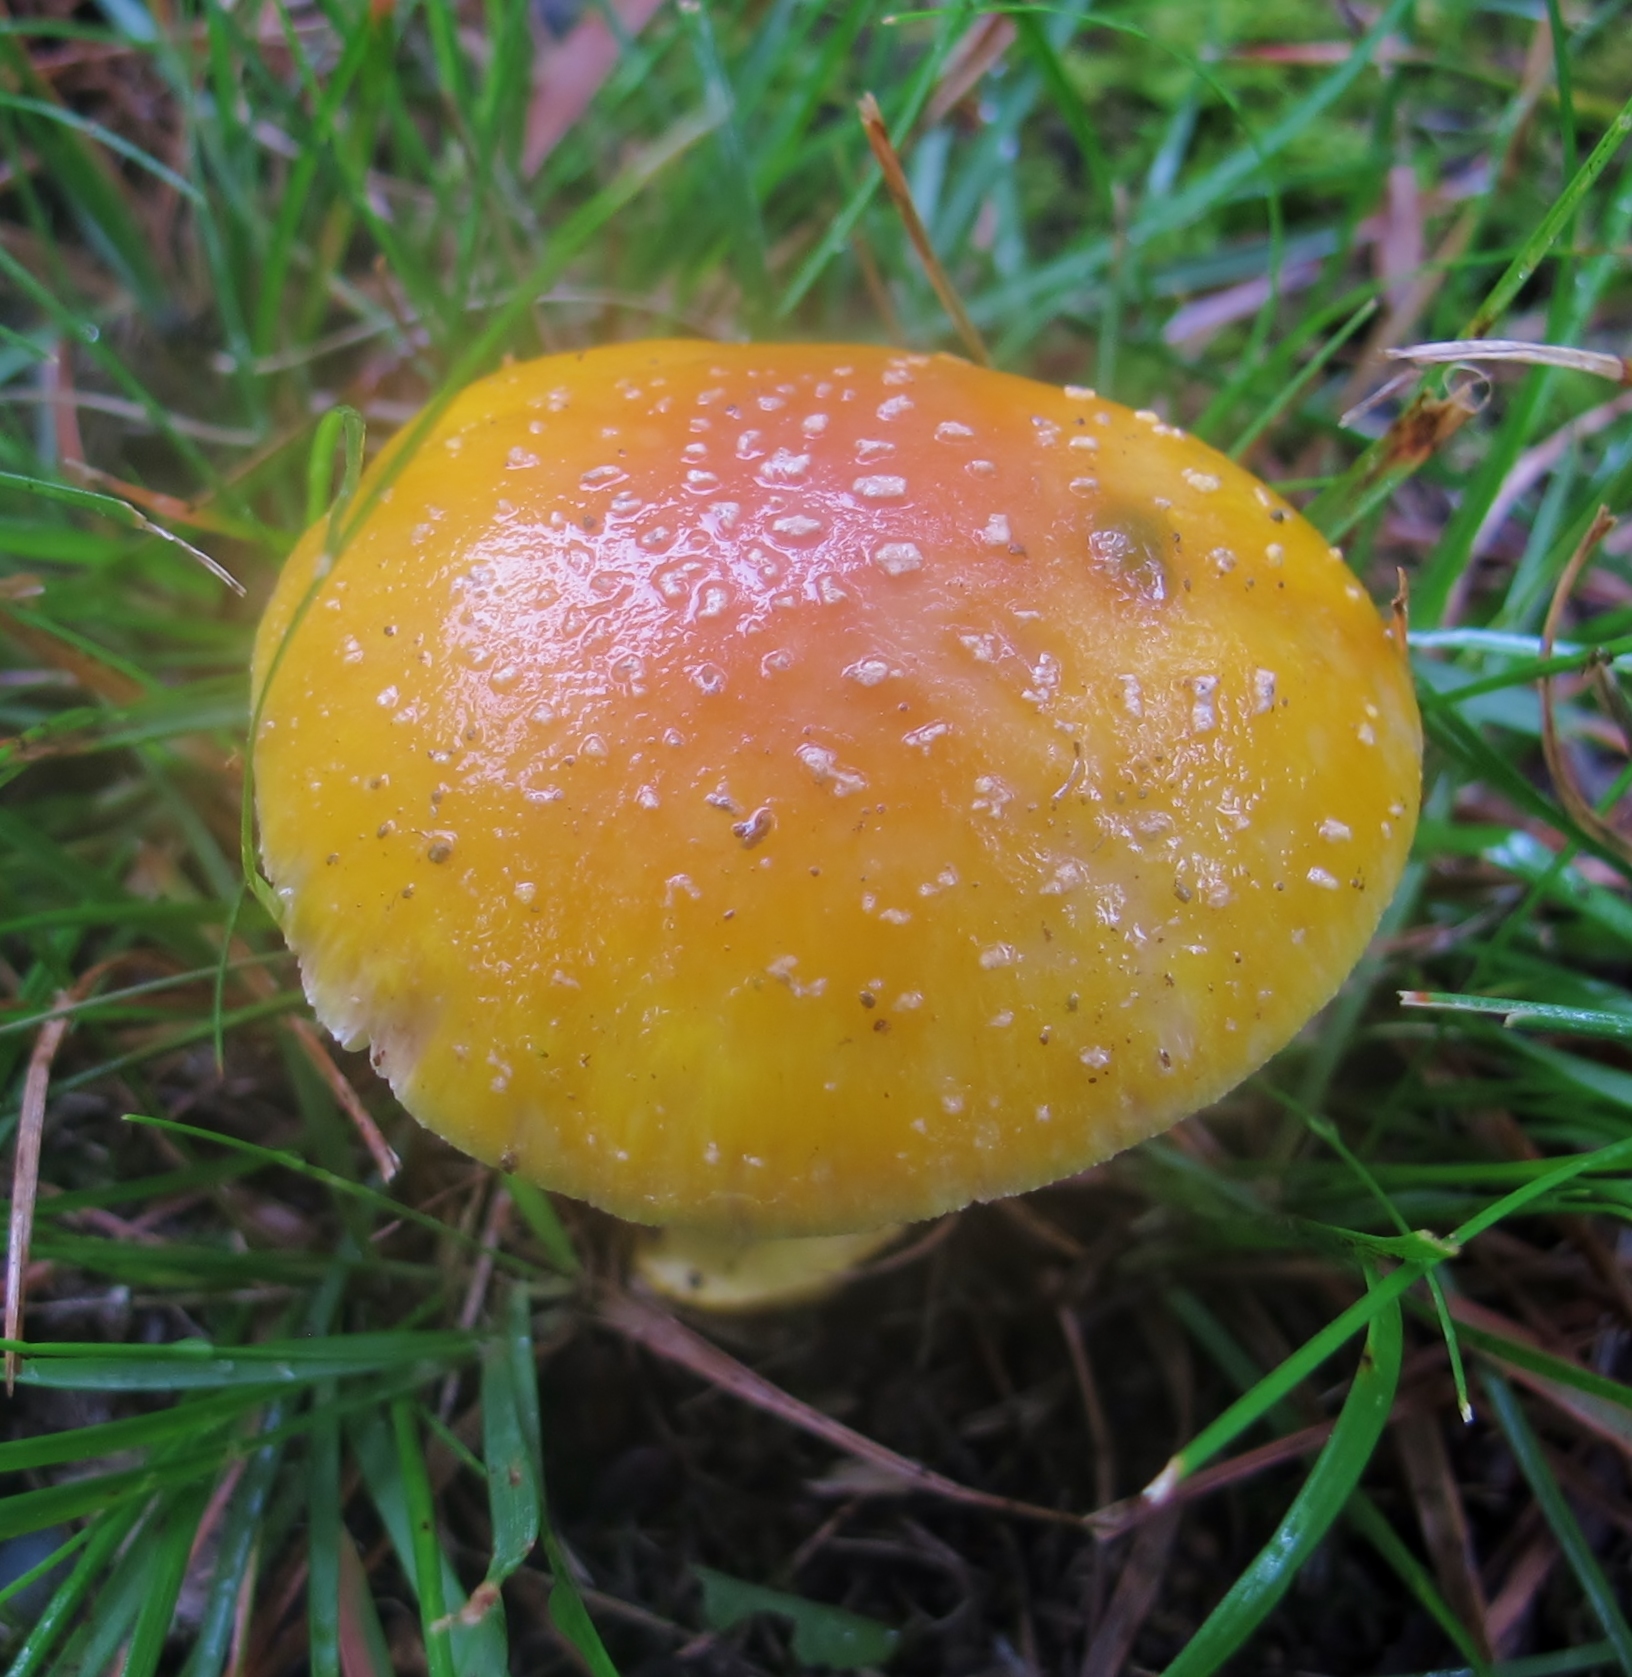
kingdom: Fungi
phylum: Basidiomycota
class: Agaricomycetes
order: Agaricales
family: Amanitaceae
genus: Amanita
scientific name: Amanita flavoconia
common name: Yellow patches
